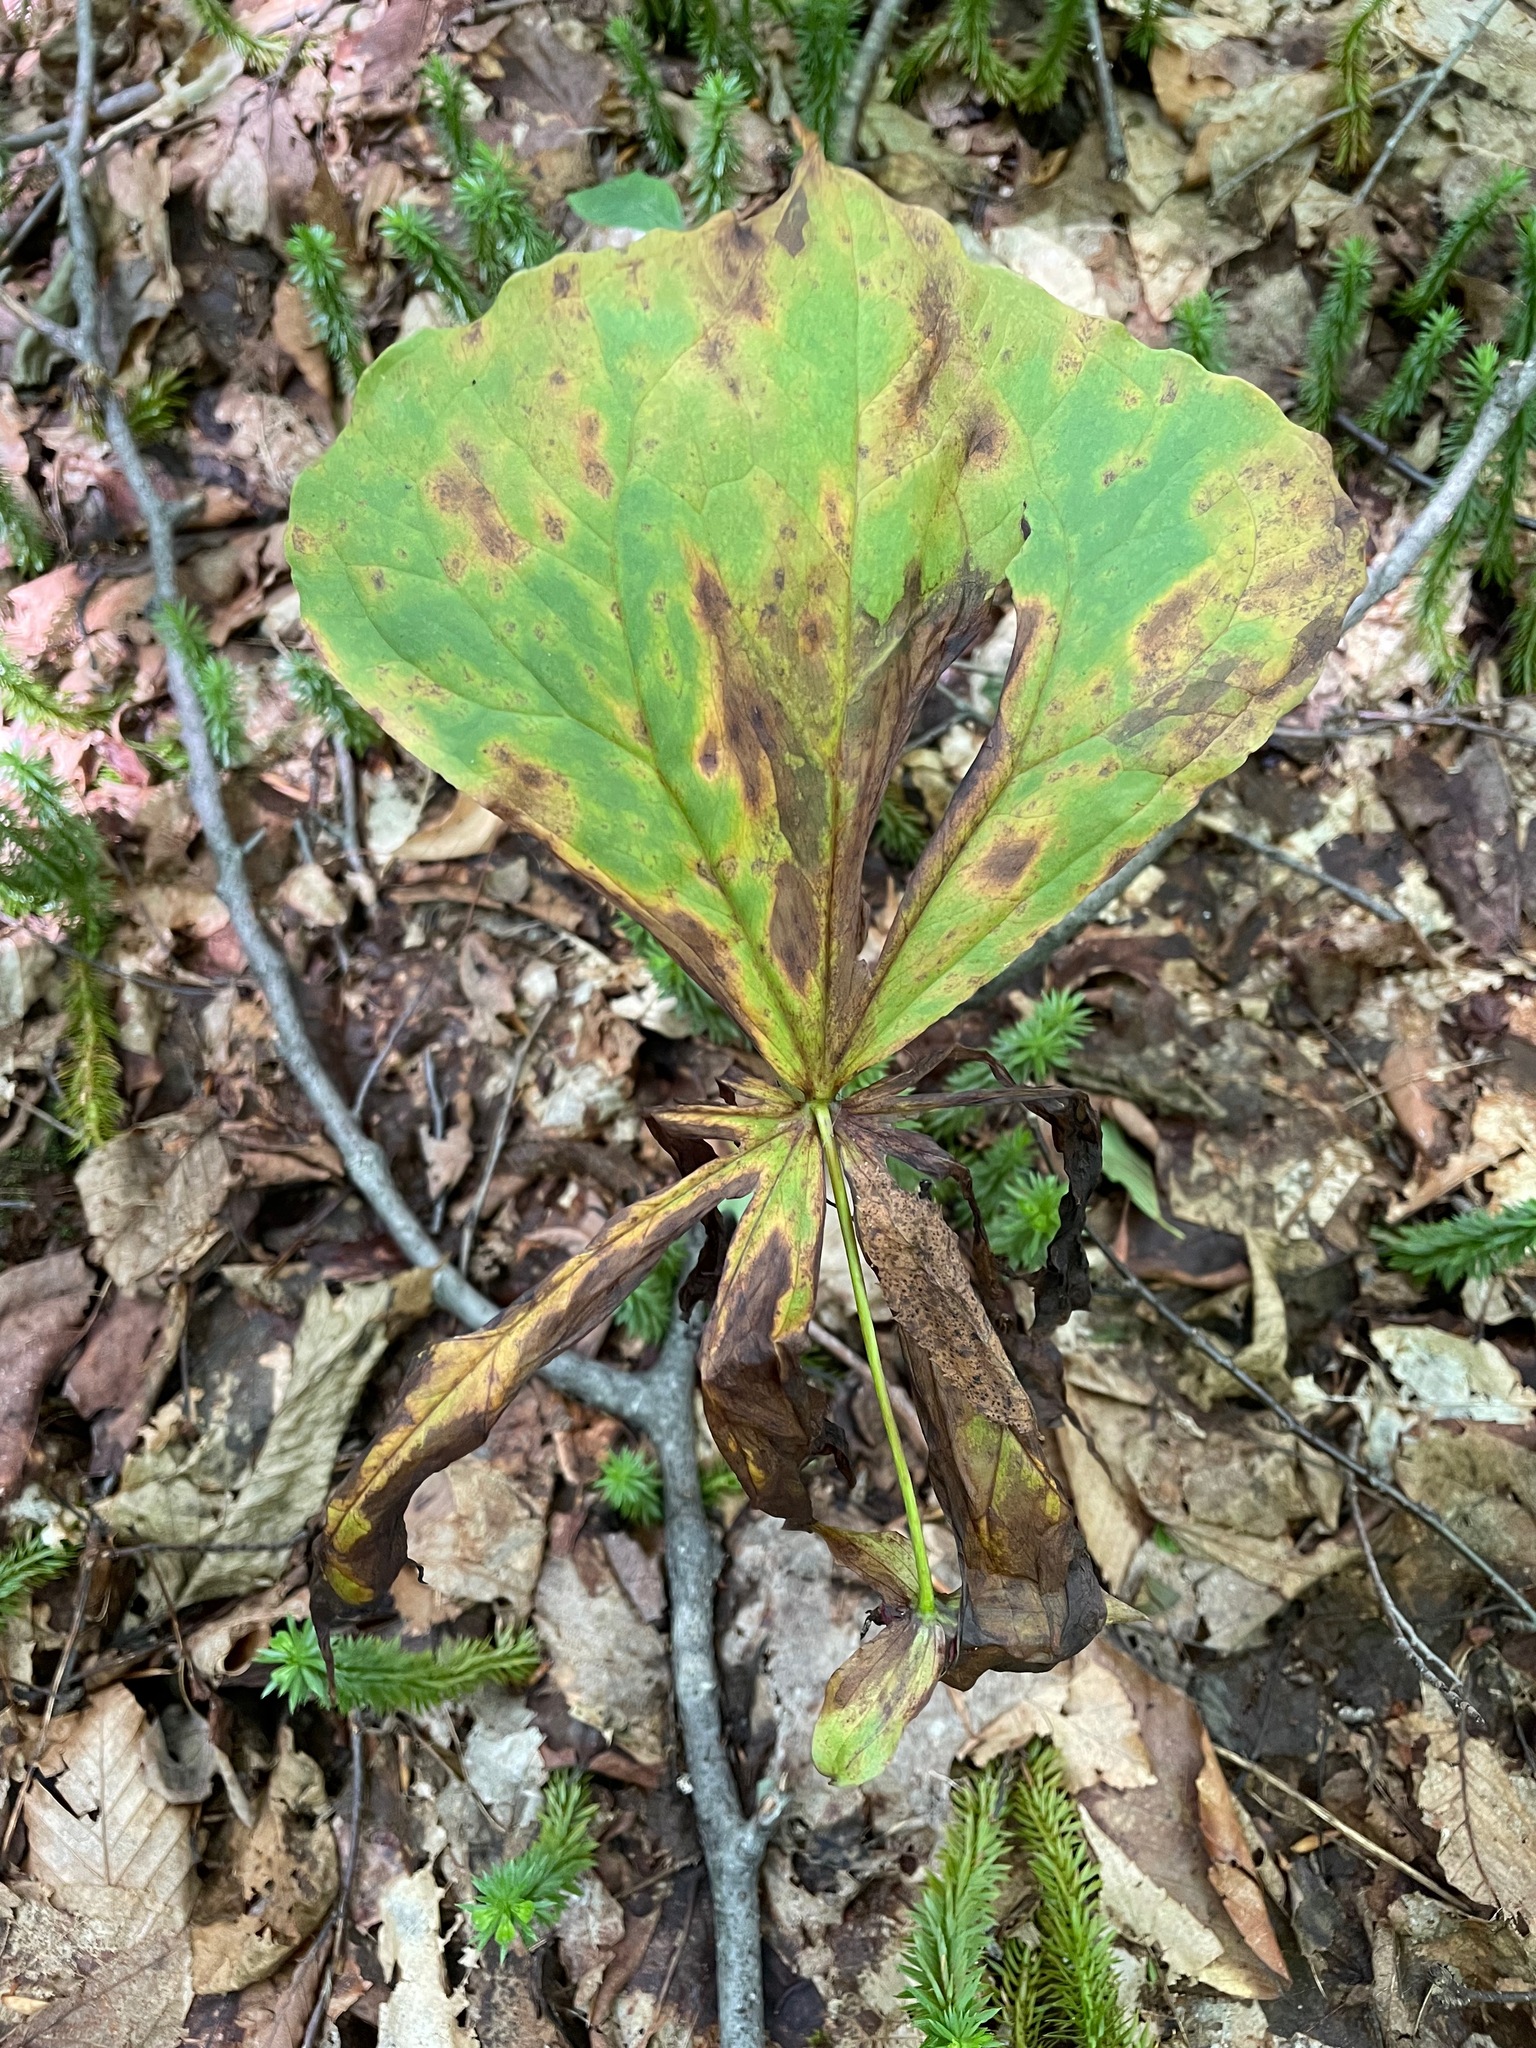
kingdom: Plantae
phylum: Tracheophyta
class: Liliopsida
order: Liliales
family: Melanthiaceae
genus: Trillium
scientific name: Trillium erectum
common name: Purple trillium
